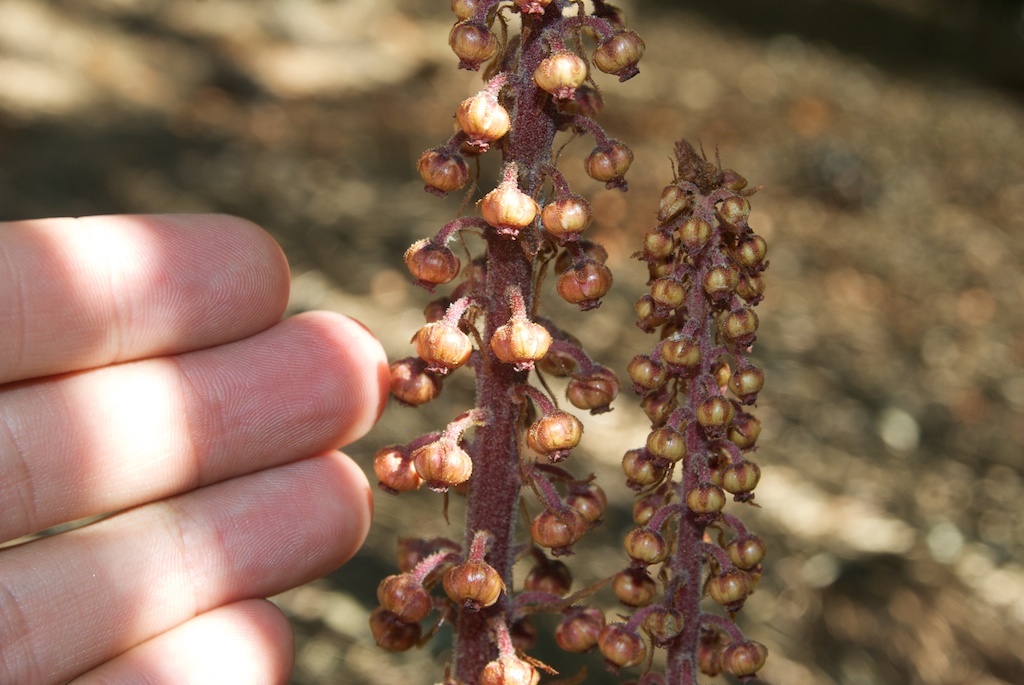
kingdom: Plantae
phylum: Tracheophyta
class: Magnoliopsida
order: Ericales
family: Ericaceae
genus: Pterospora
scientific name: Pterospora andromedea
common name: Giant bird's-nest
